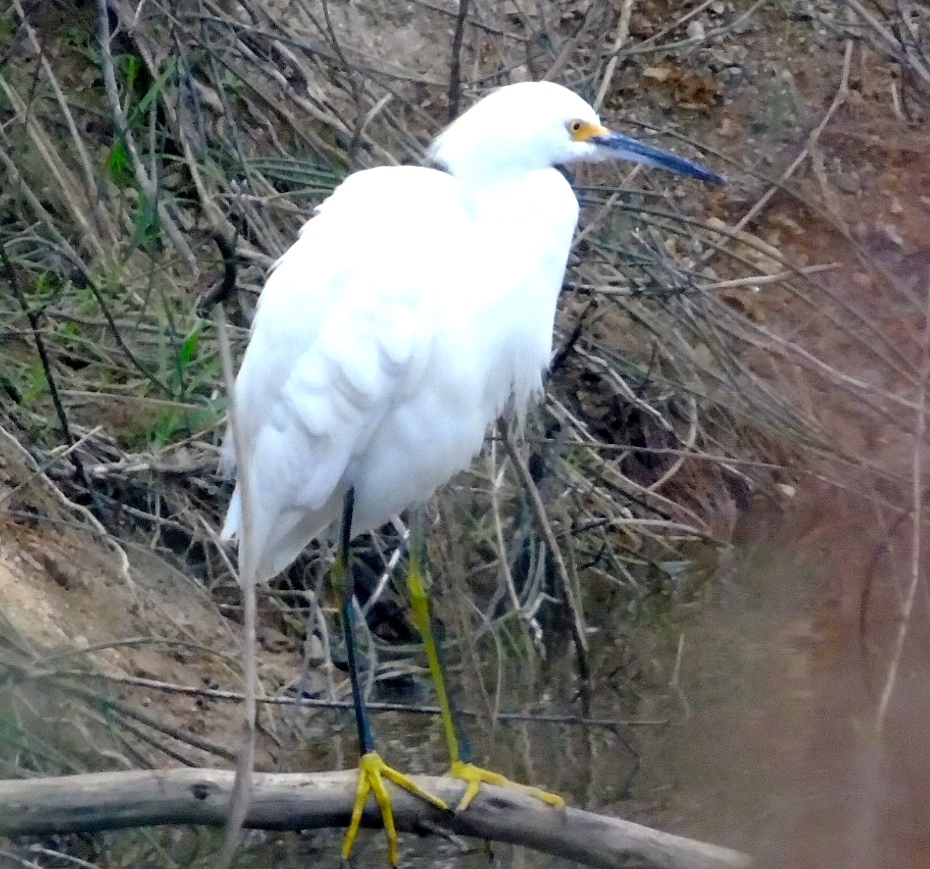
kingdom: Animalia
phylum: Chordata
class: Aves
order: Pelecaniformes
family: Ardeidae
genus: Egretta
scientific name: Egretta thula
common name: Snowy egret
